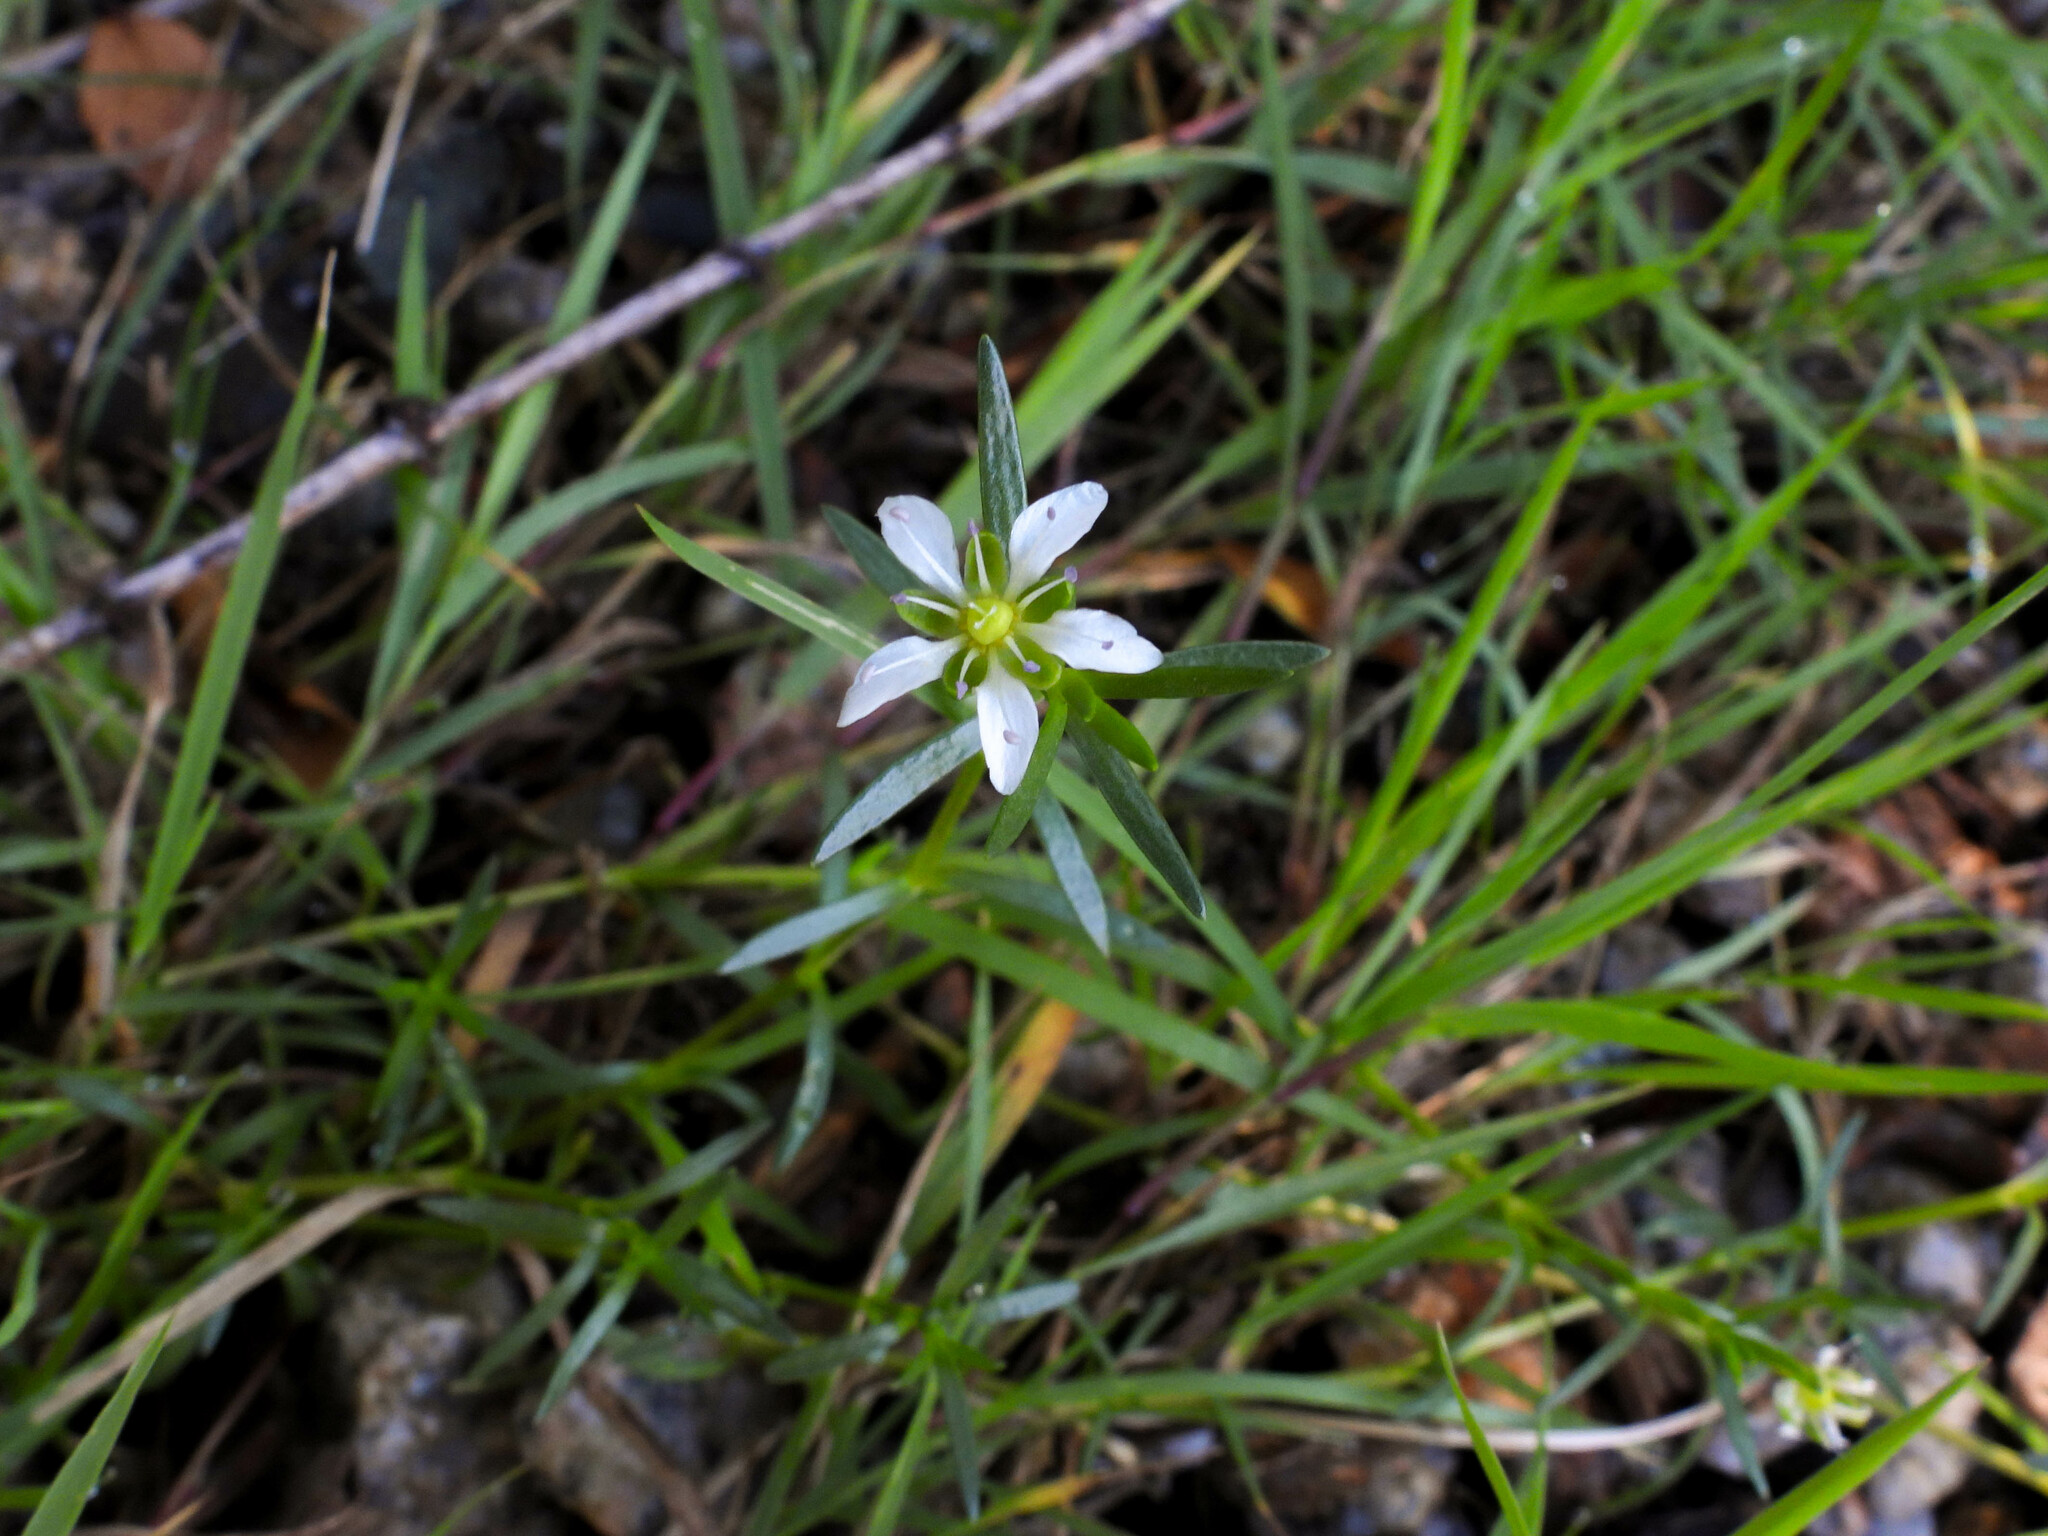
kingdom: Plantae
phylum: Tracheophyta
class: Magnoliopsida
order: Caryophyllales
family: Caryophyllaceae
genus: Arenaria
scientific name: Arenaria serpens
